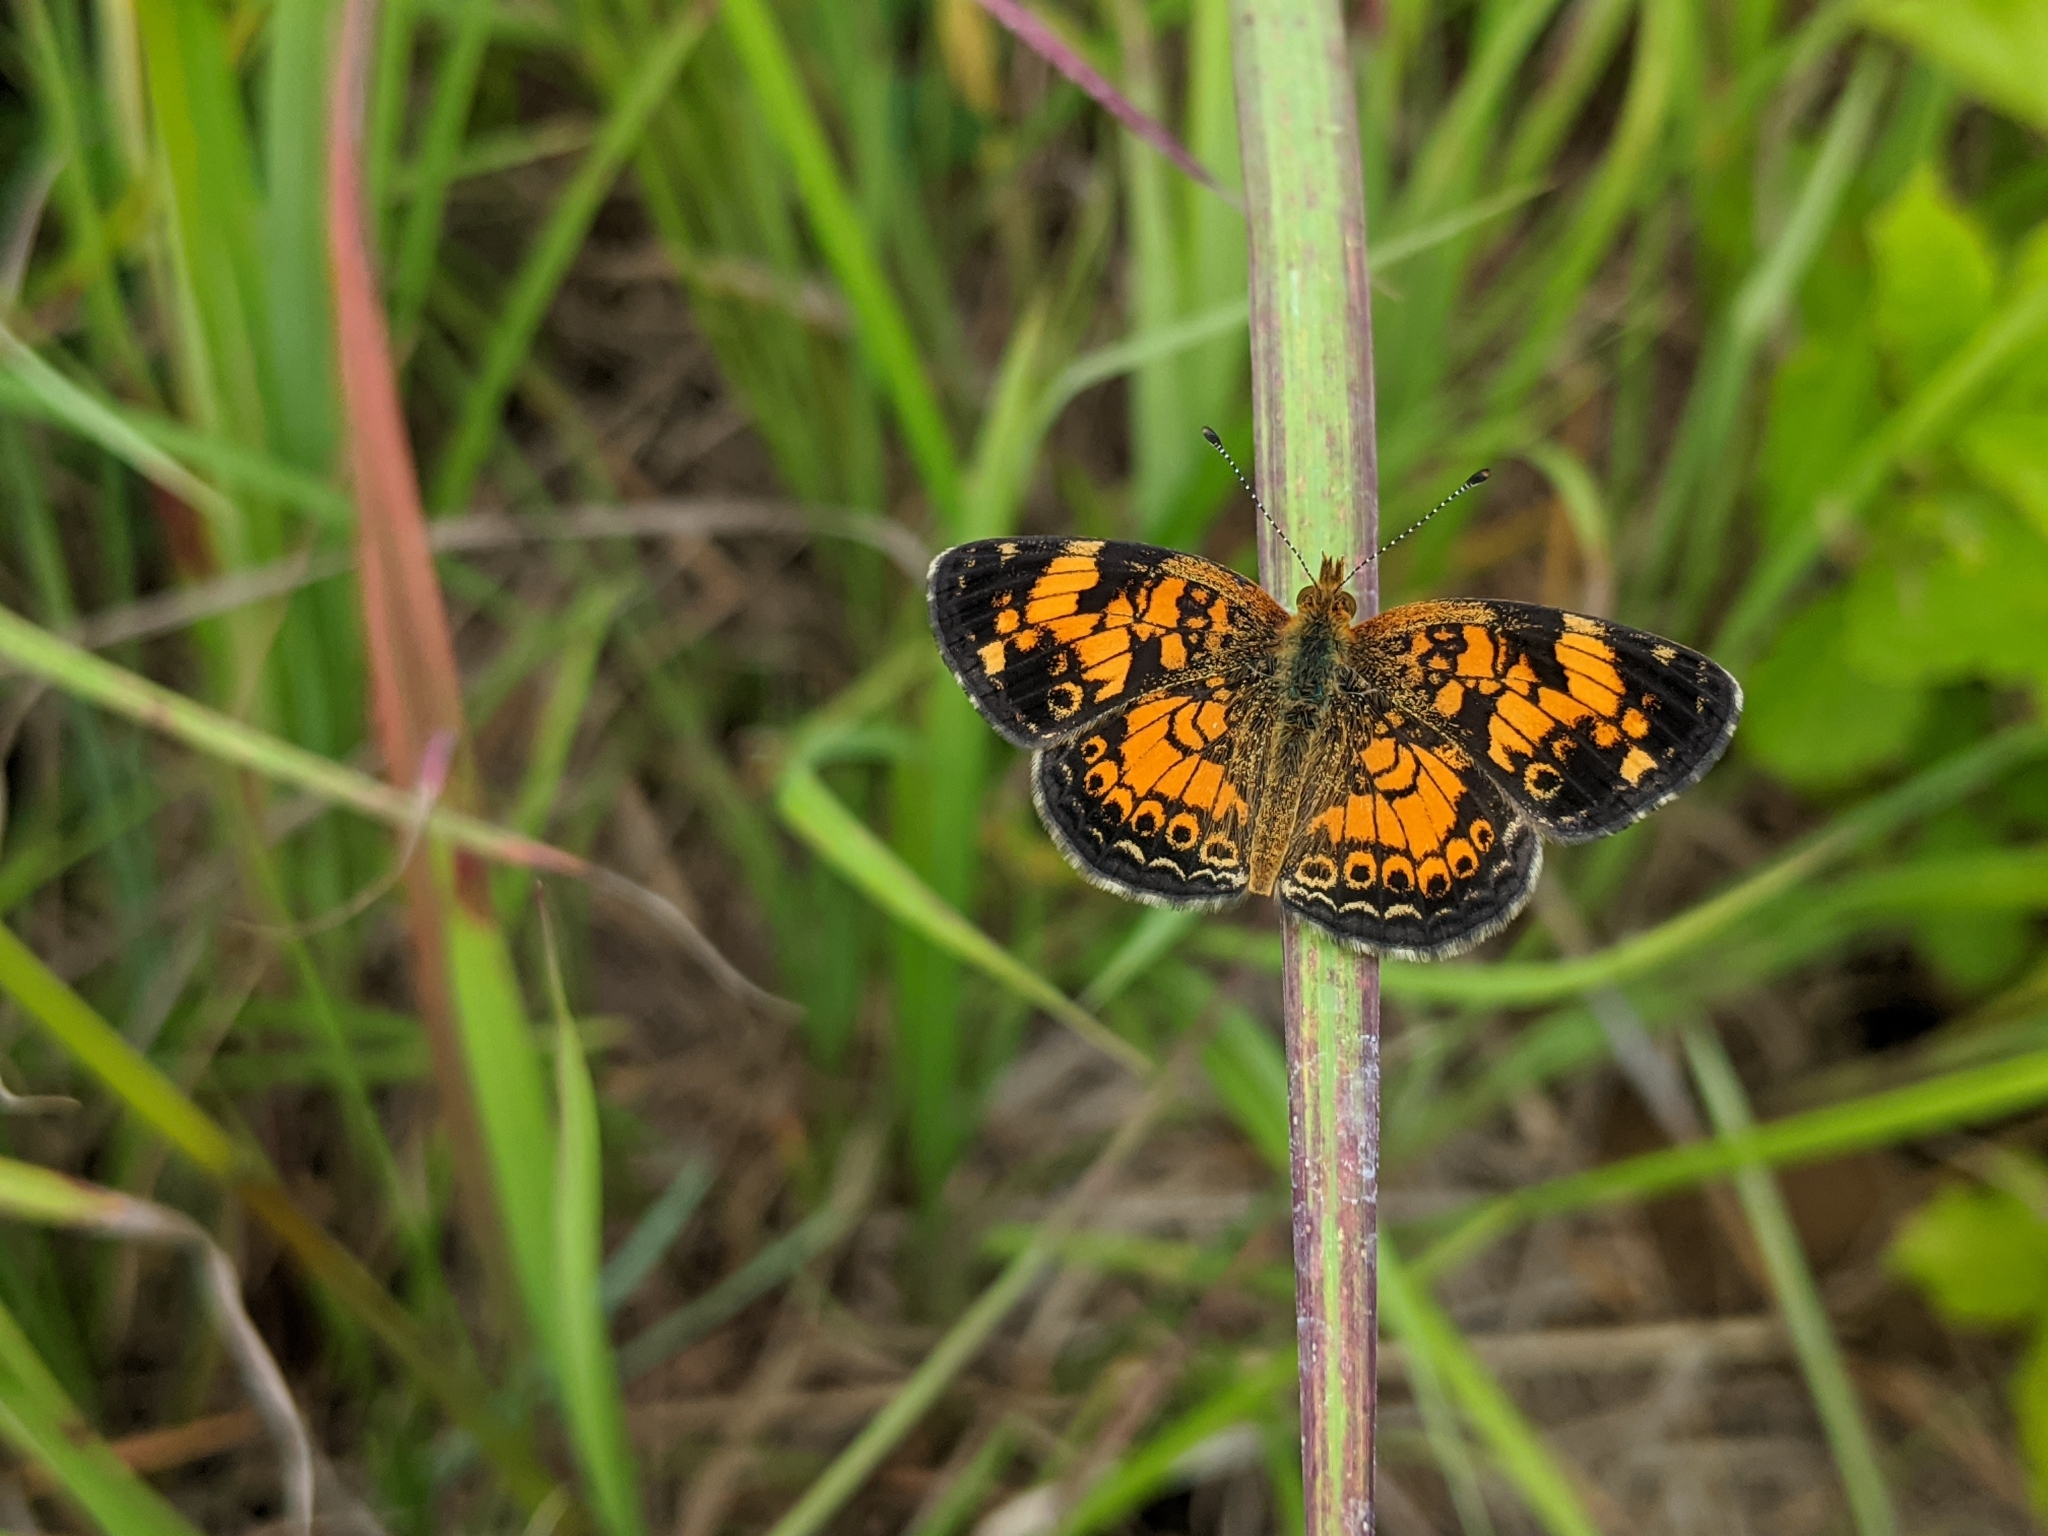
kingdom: Animalia
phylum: Arthropoda
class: Insecta
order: Lepidoptera
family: Nymphalidae
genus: Phyciodes
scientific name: Phyciodes tharos
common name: Pearl crescent
